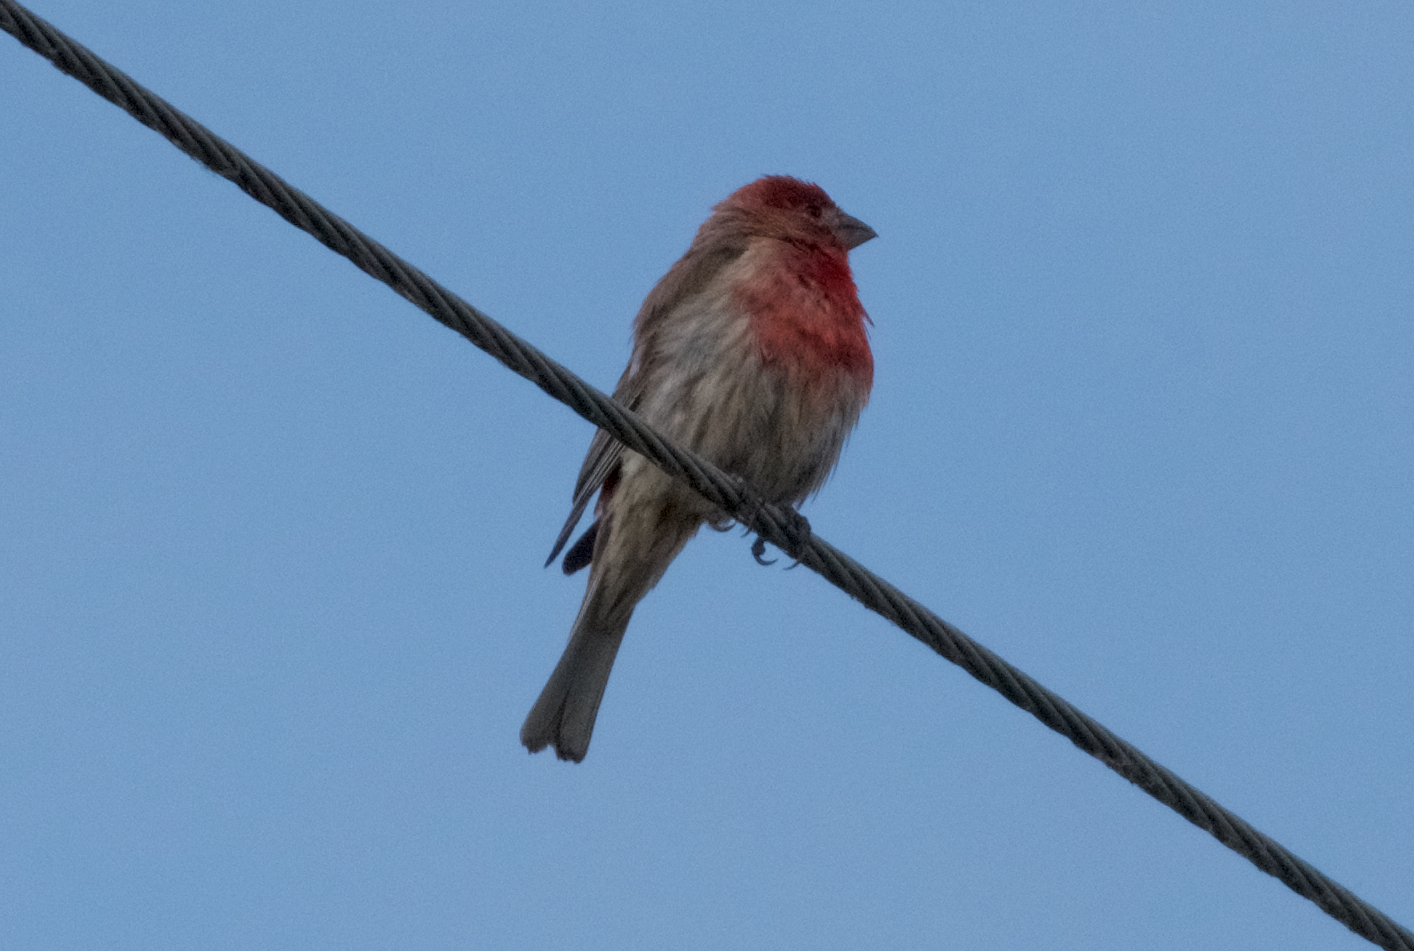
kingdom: Animalia
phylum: Chordata
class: Aves
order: Passeriformes
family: Fringillidae
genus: Haemorhous
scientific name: Haemorhous mexicanus
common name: House finch
